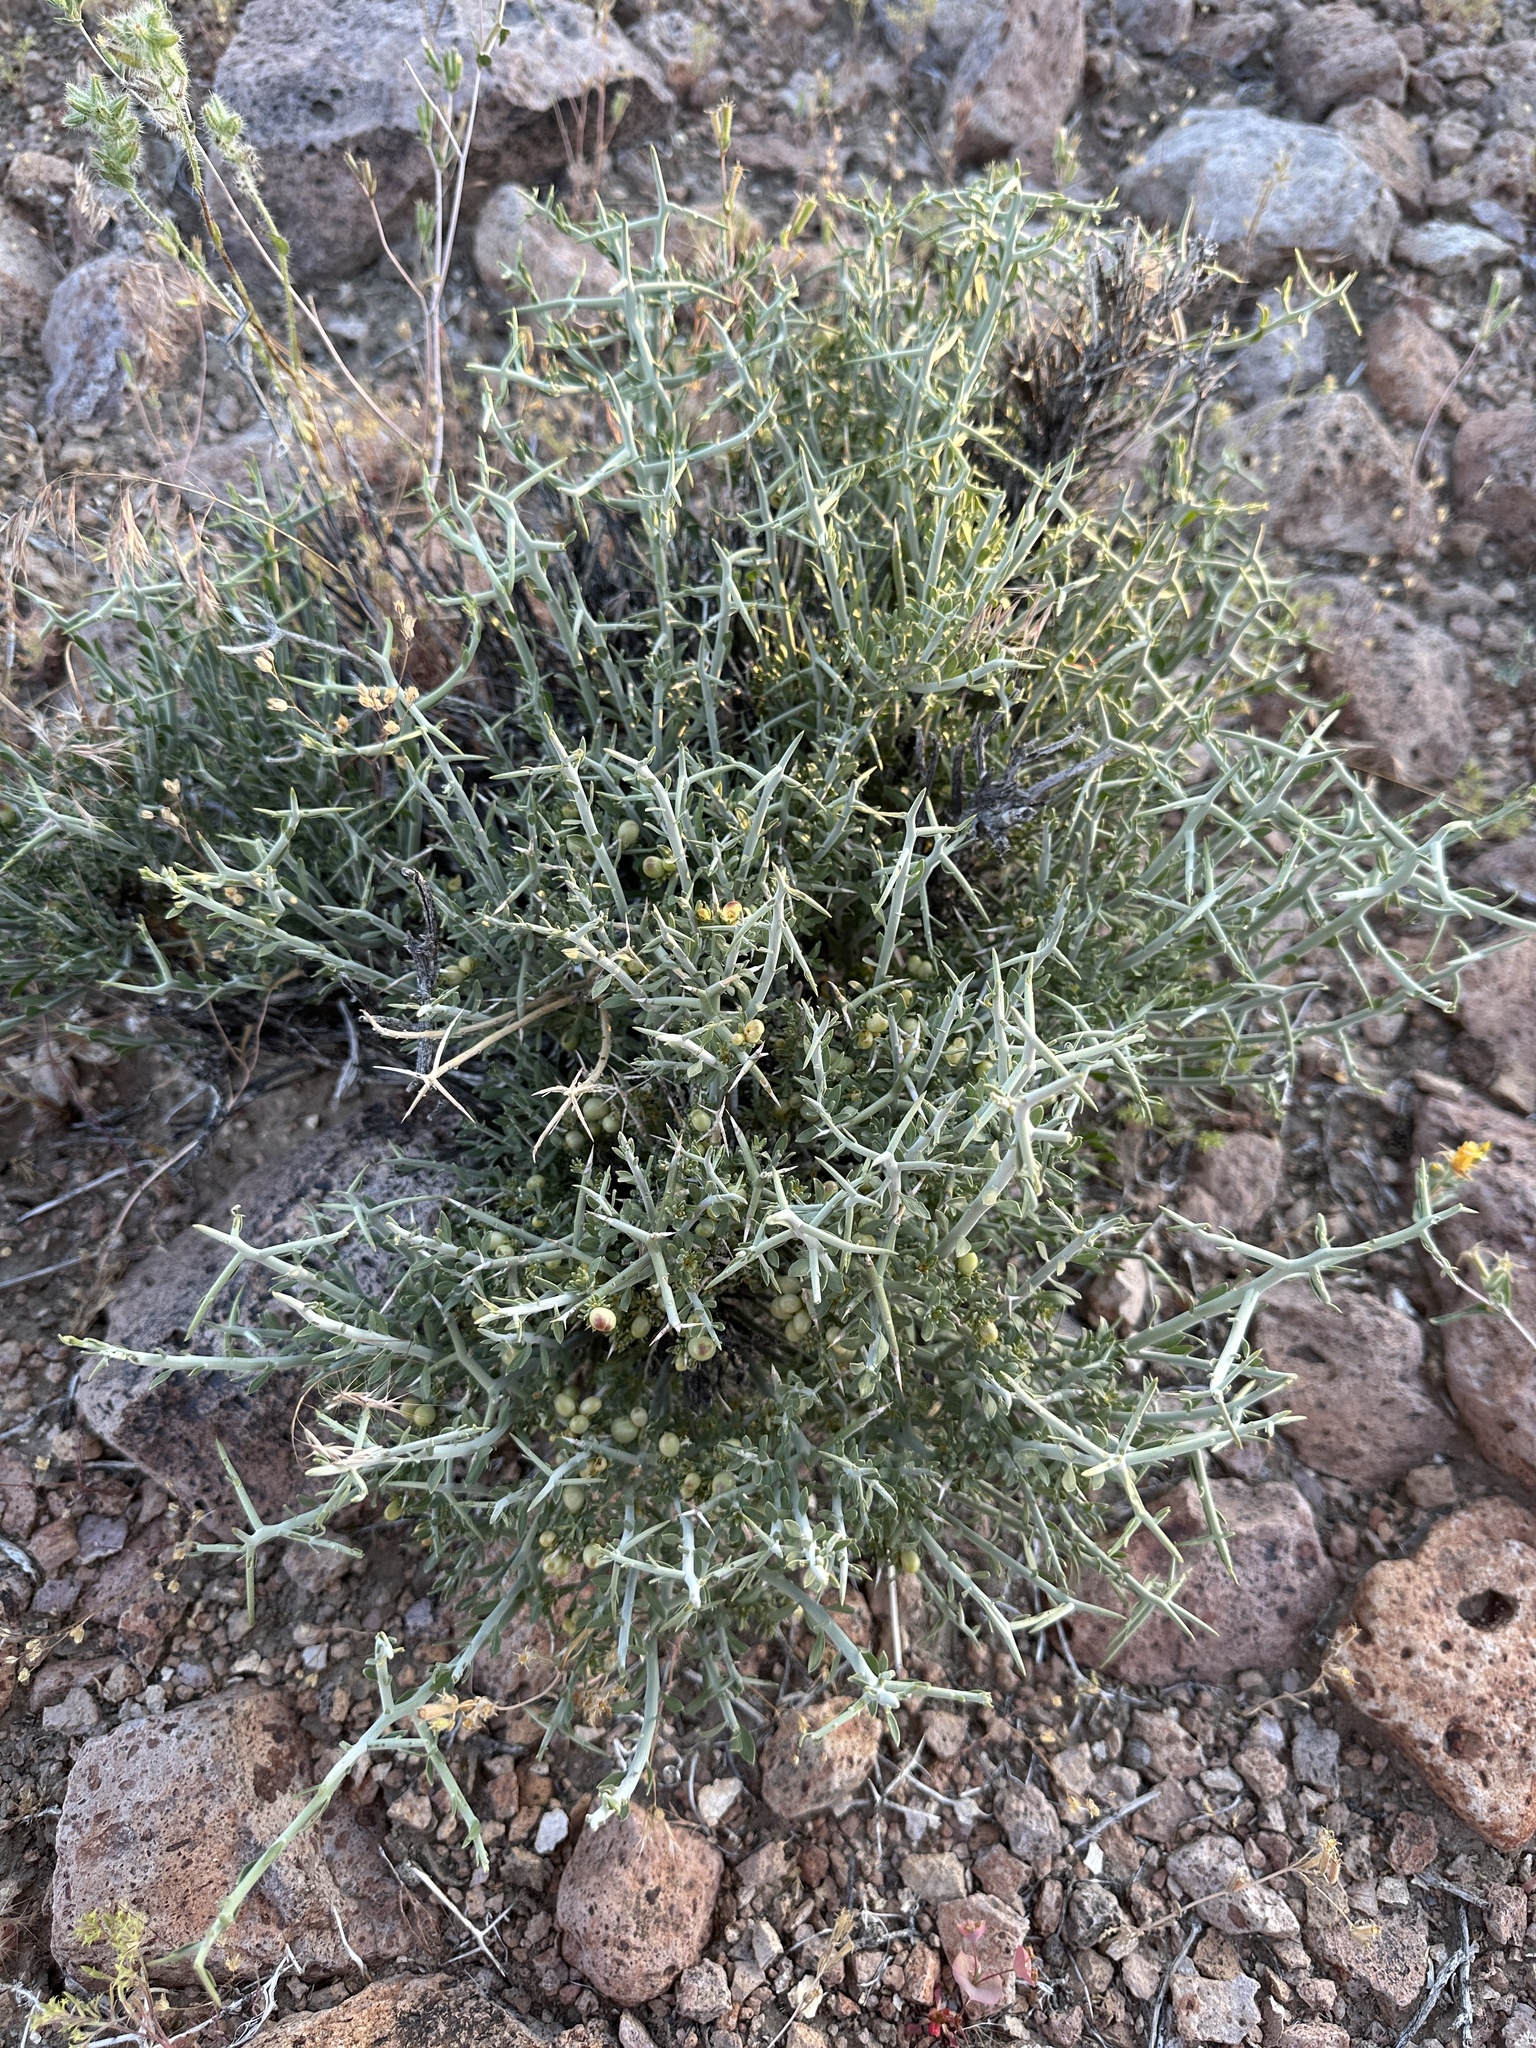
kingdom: Plantae
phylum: Tracheophyta
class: Magnoliopsida
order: Lamiales
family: Oleaceae
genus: Menodora
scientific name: Menodora spinescens
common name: Spiny menodora
